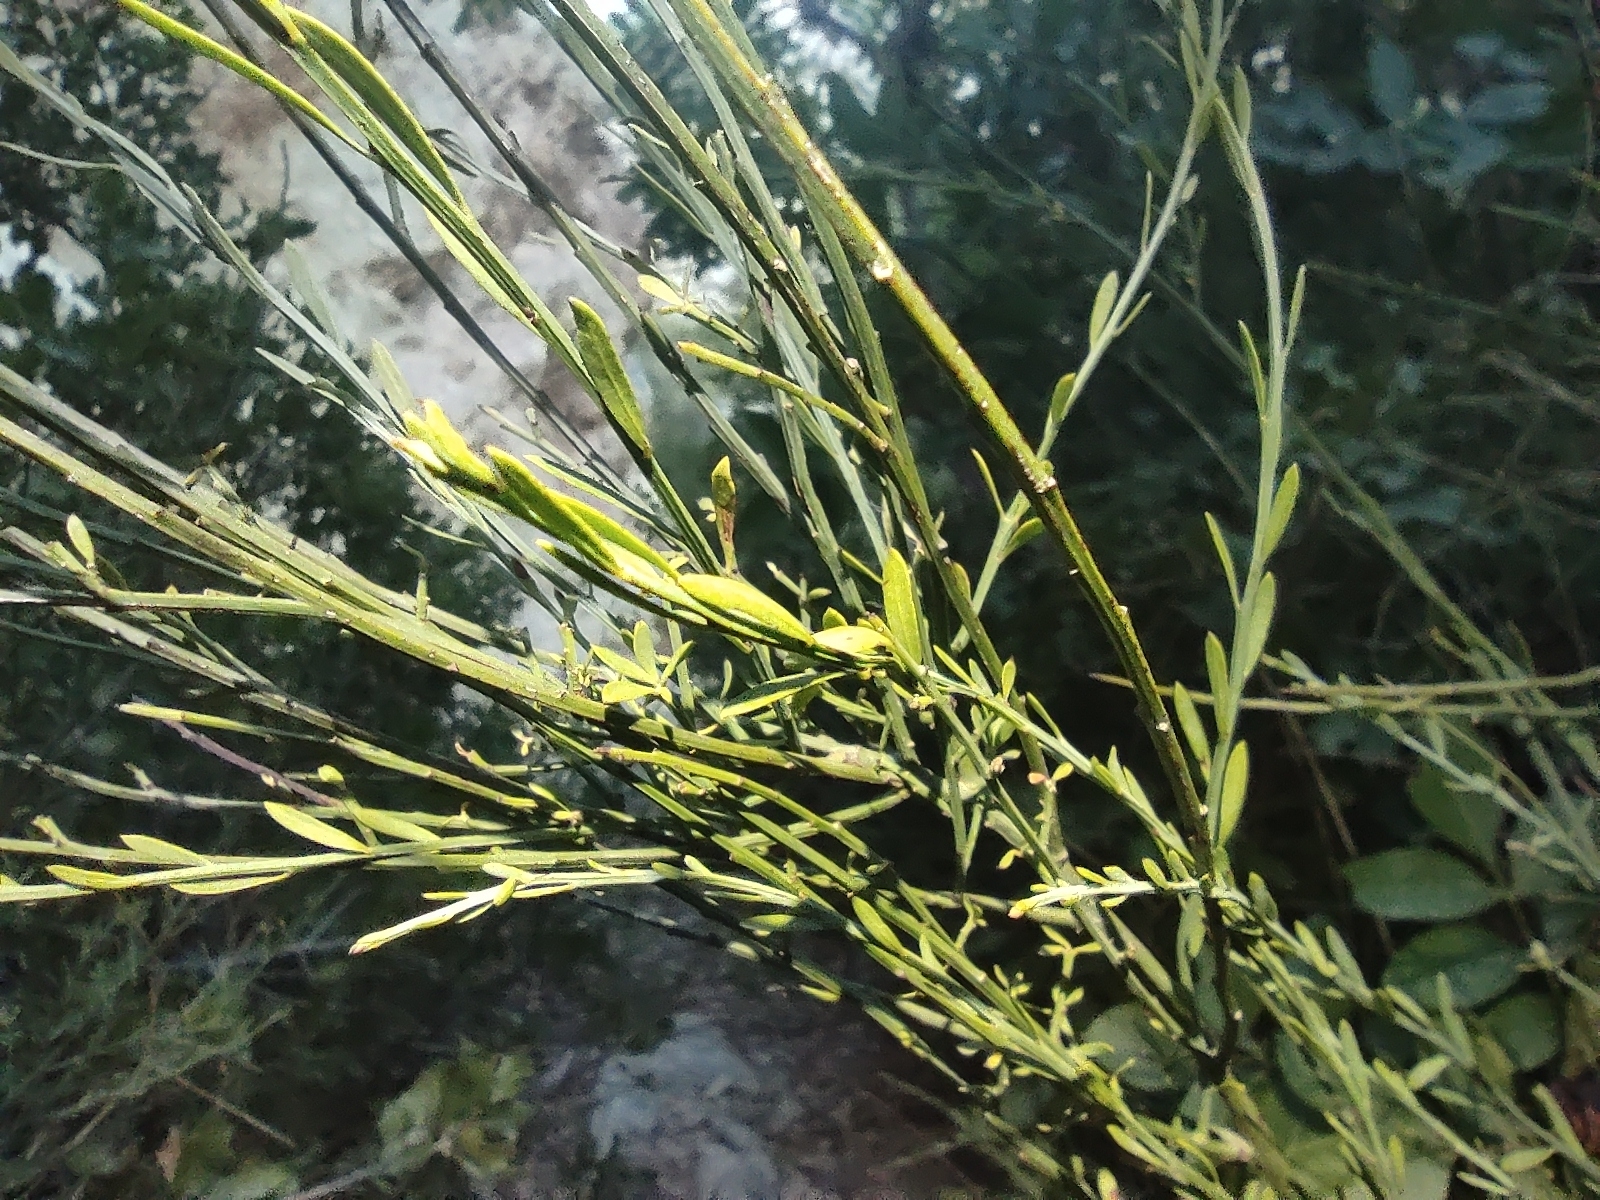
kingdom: Plantae
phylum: Tracheophyta
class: Magnoliopsida
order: Santalales
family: Santalaceae
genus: Osyris
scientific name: Osyris alba
